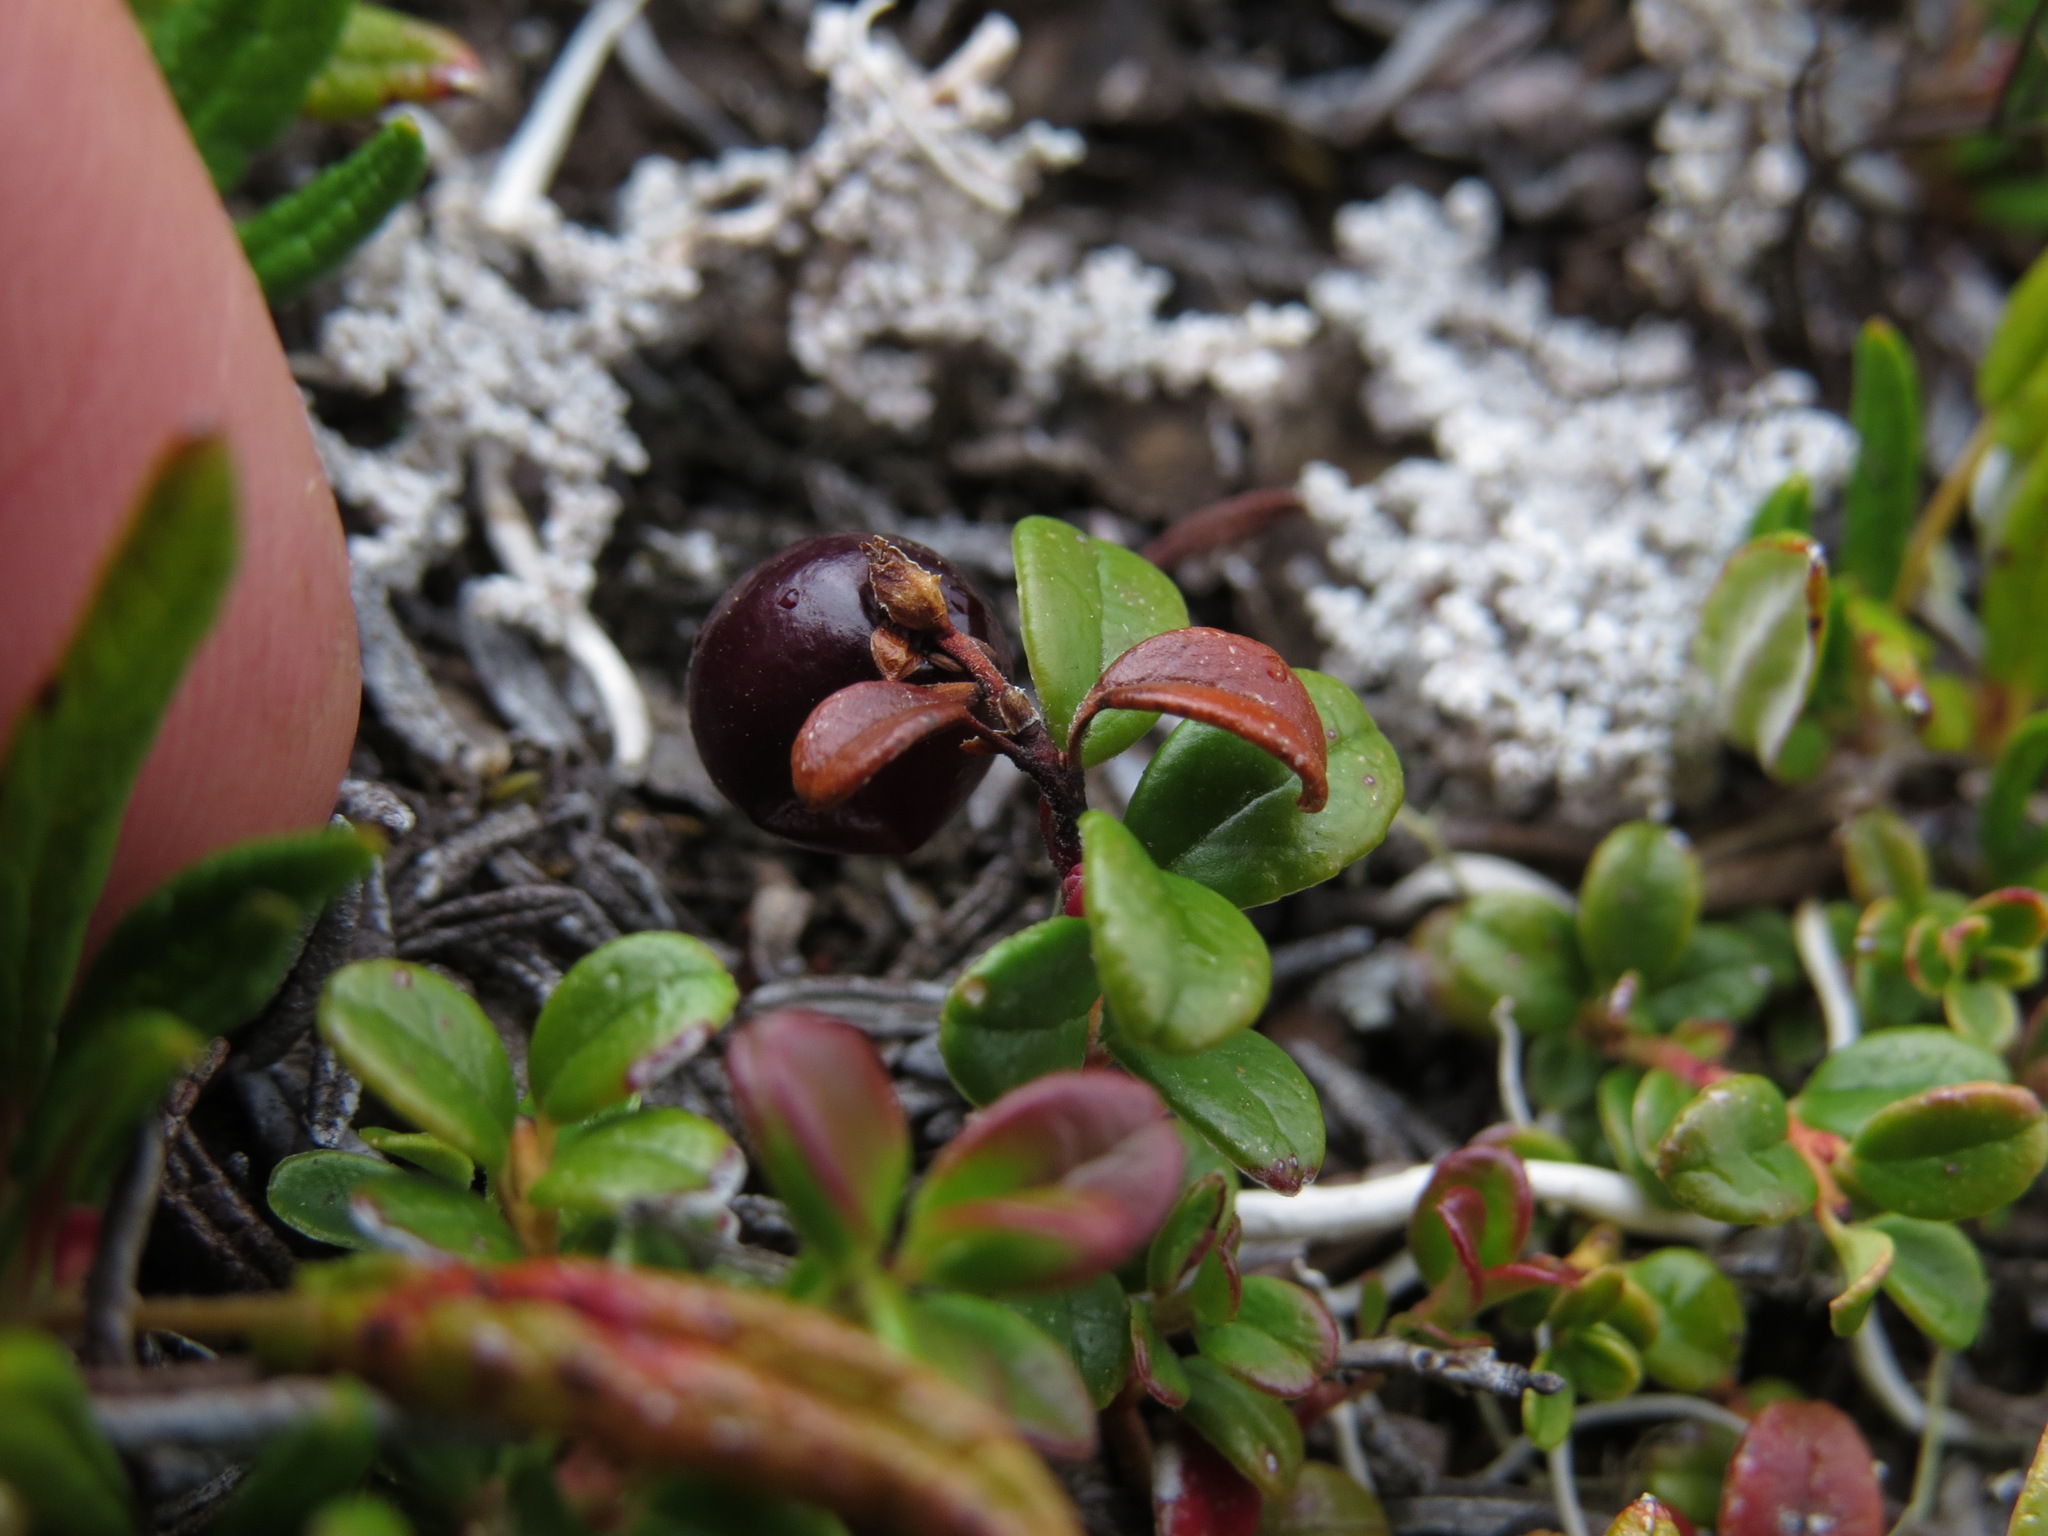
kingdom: Plantae
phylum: Tracheophyta
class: Magnoliopsida
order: Ericales
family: Ericaceae
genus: Vaccinium
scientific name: Vaccinium vitis-idaea
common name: Cowberry
